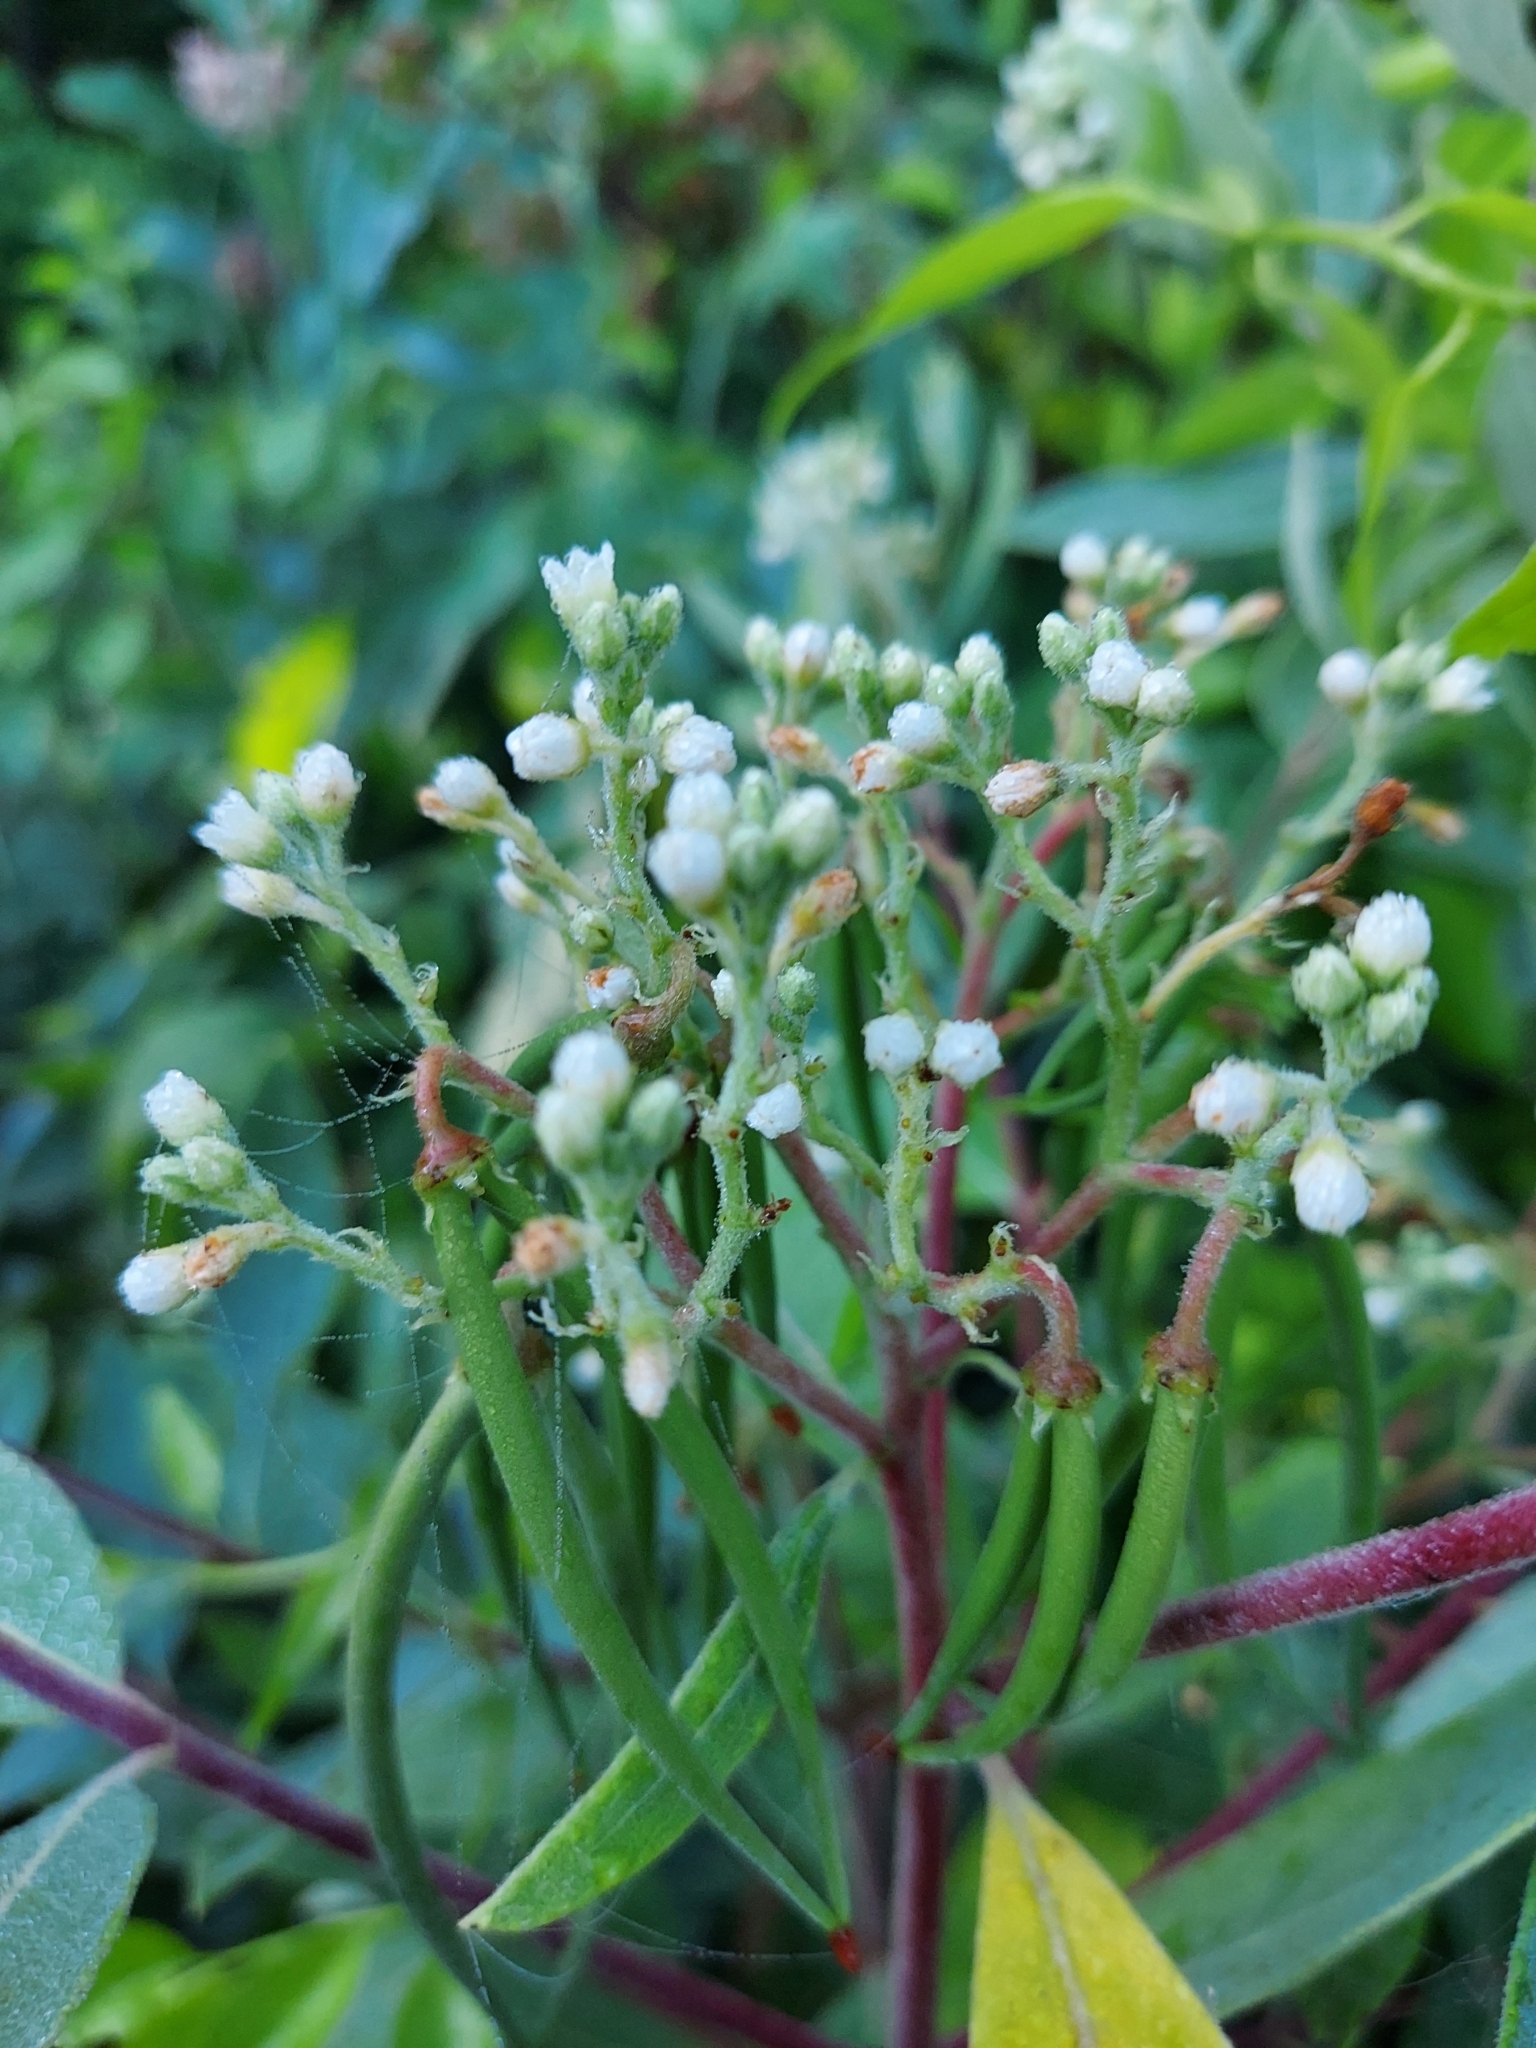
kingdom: Plantae
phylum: Tracheophyta
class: Magnoliopsida
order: Gentianales
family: Apocynaceae
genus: Apocynum
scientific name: Apocynum cannabinum
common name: Hemp dogbane
